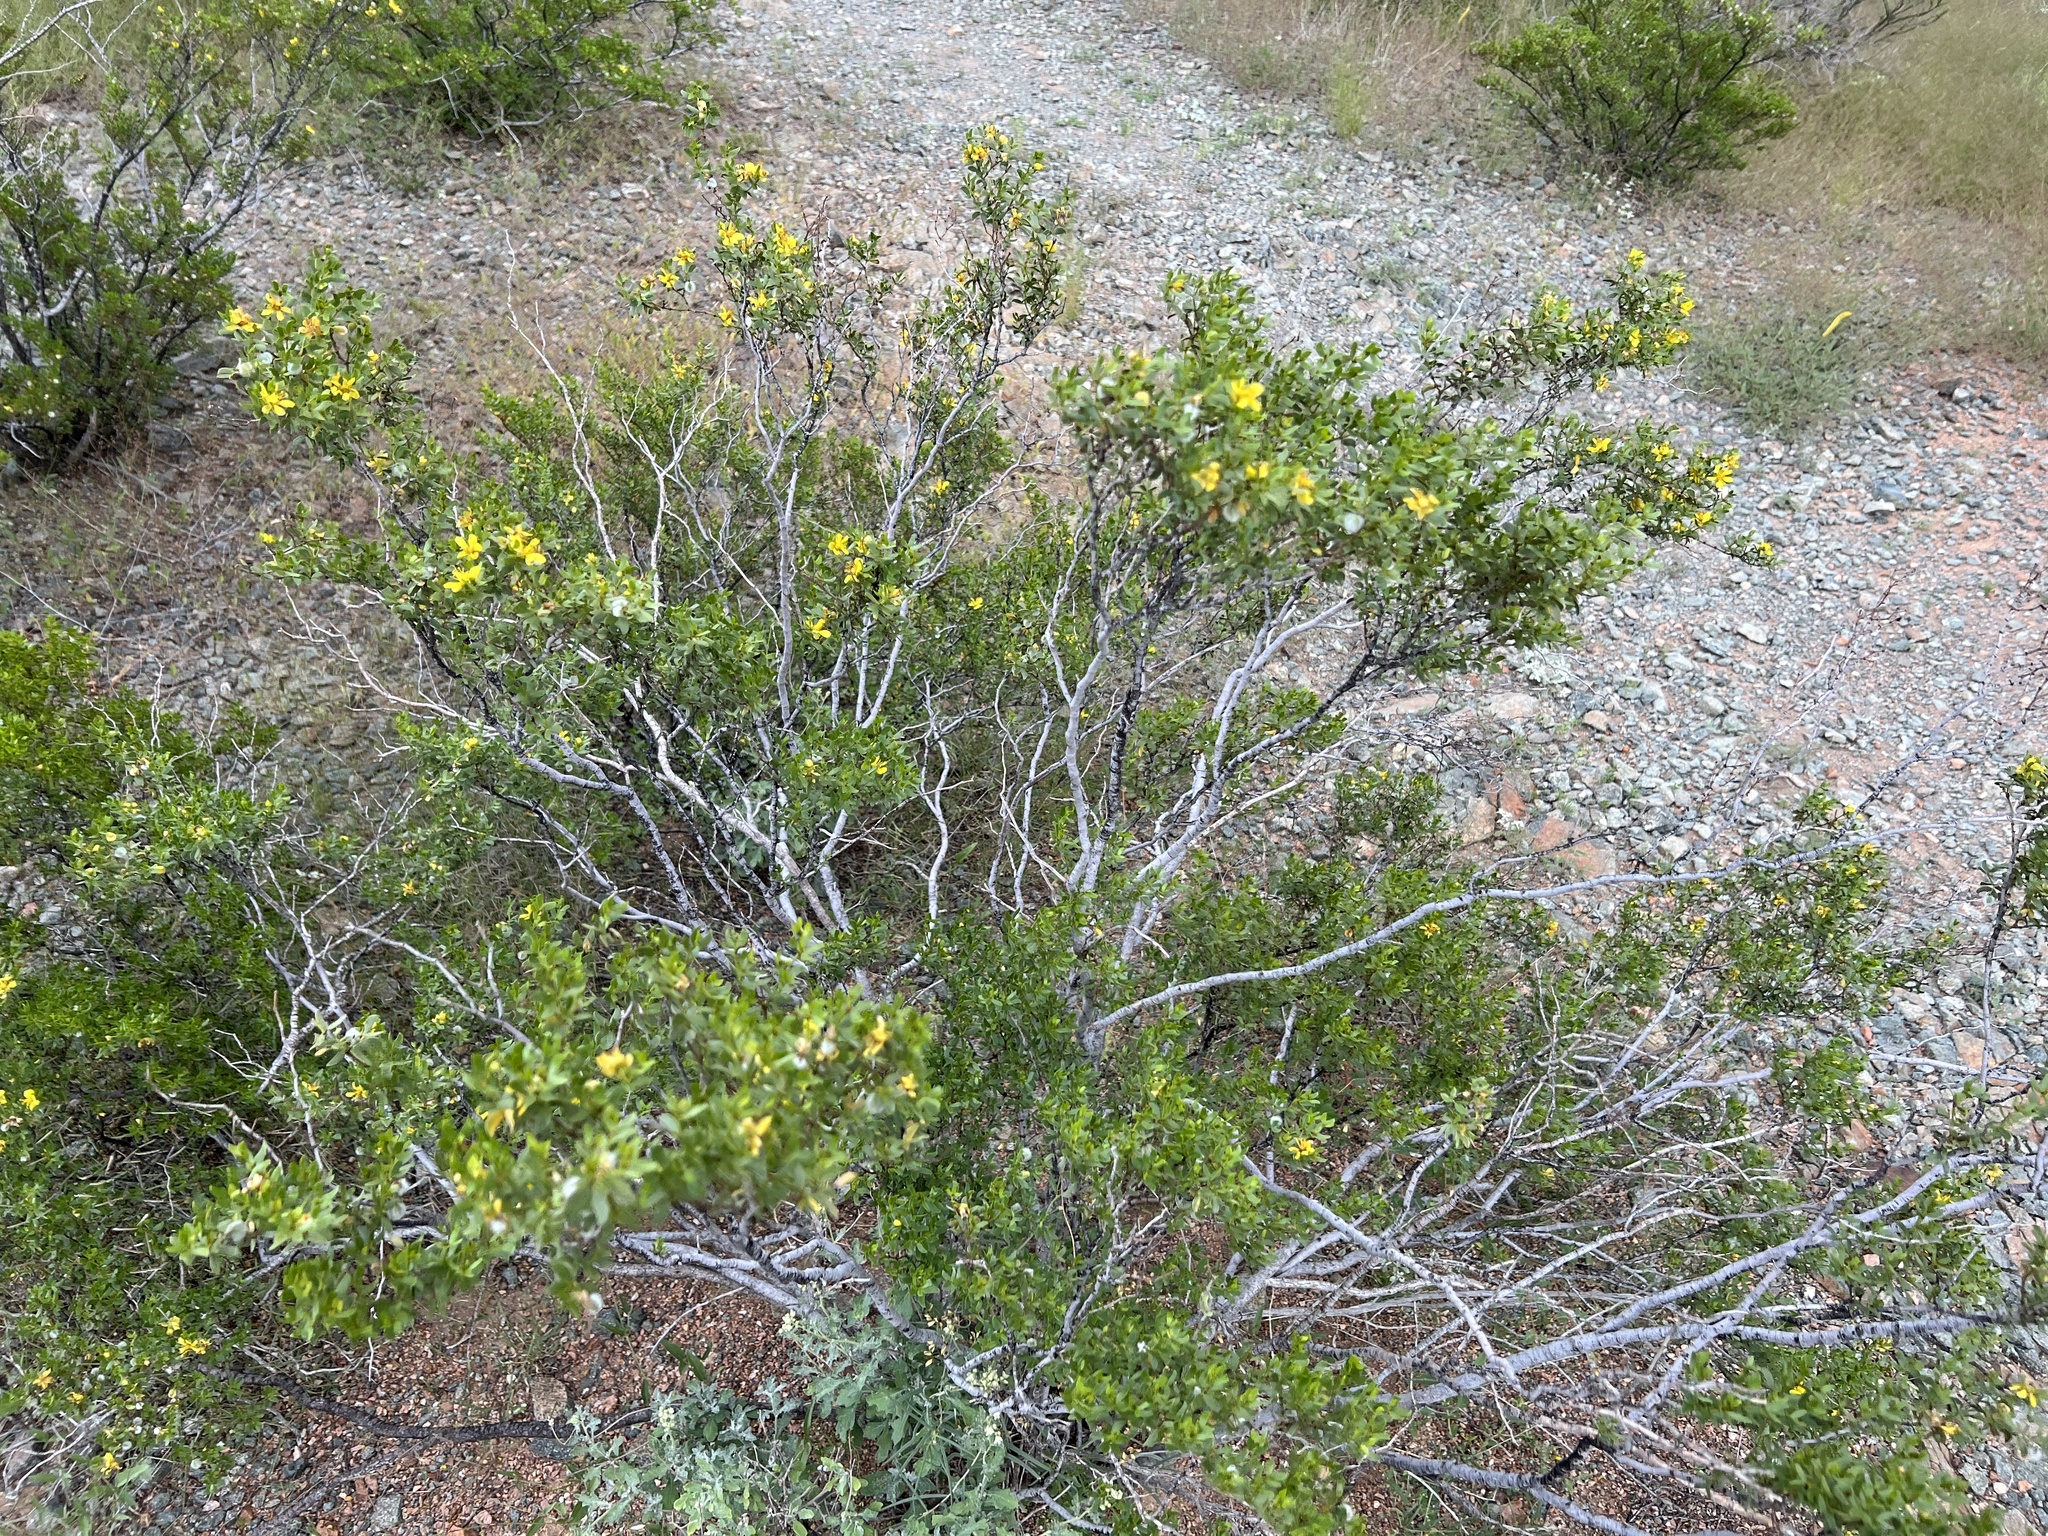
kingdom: Plantae
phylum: Tracheophyta
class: Magnoliopsida
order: Zygophyllales
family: Zygophyllaceae
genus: Larrea
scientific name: Larrea tridentata
